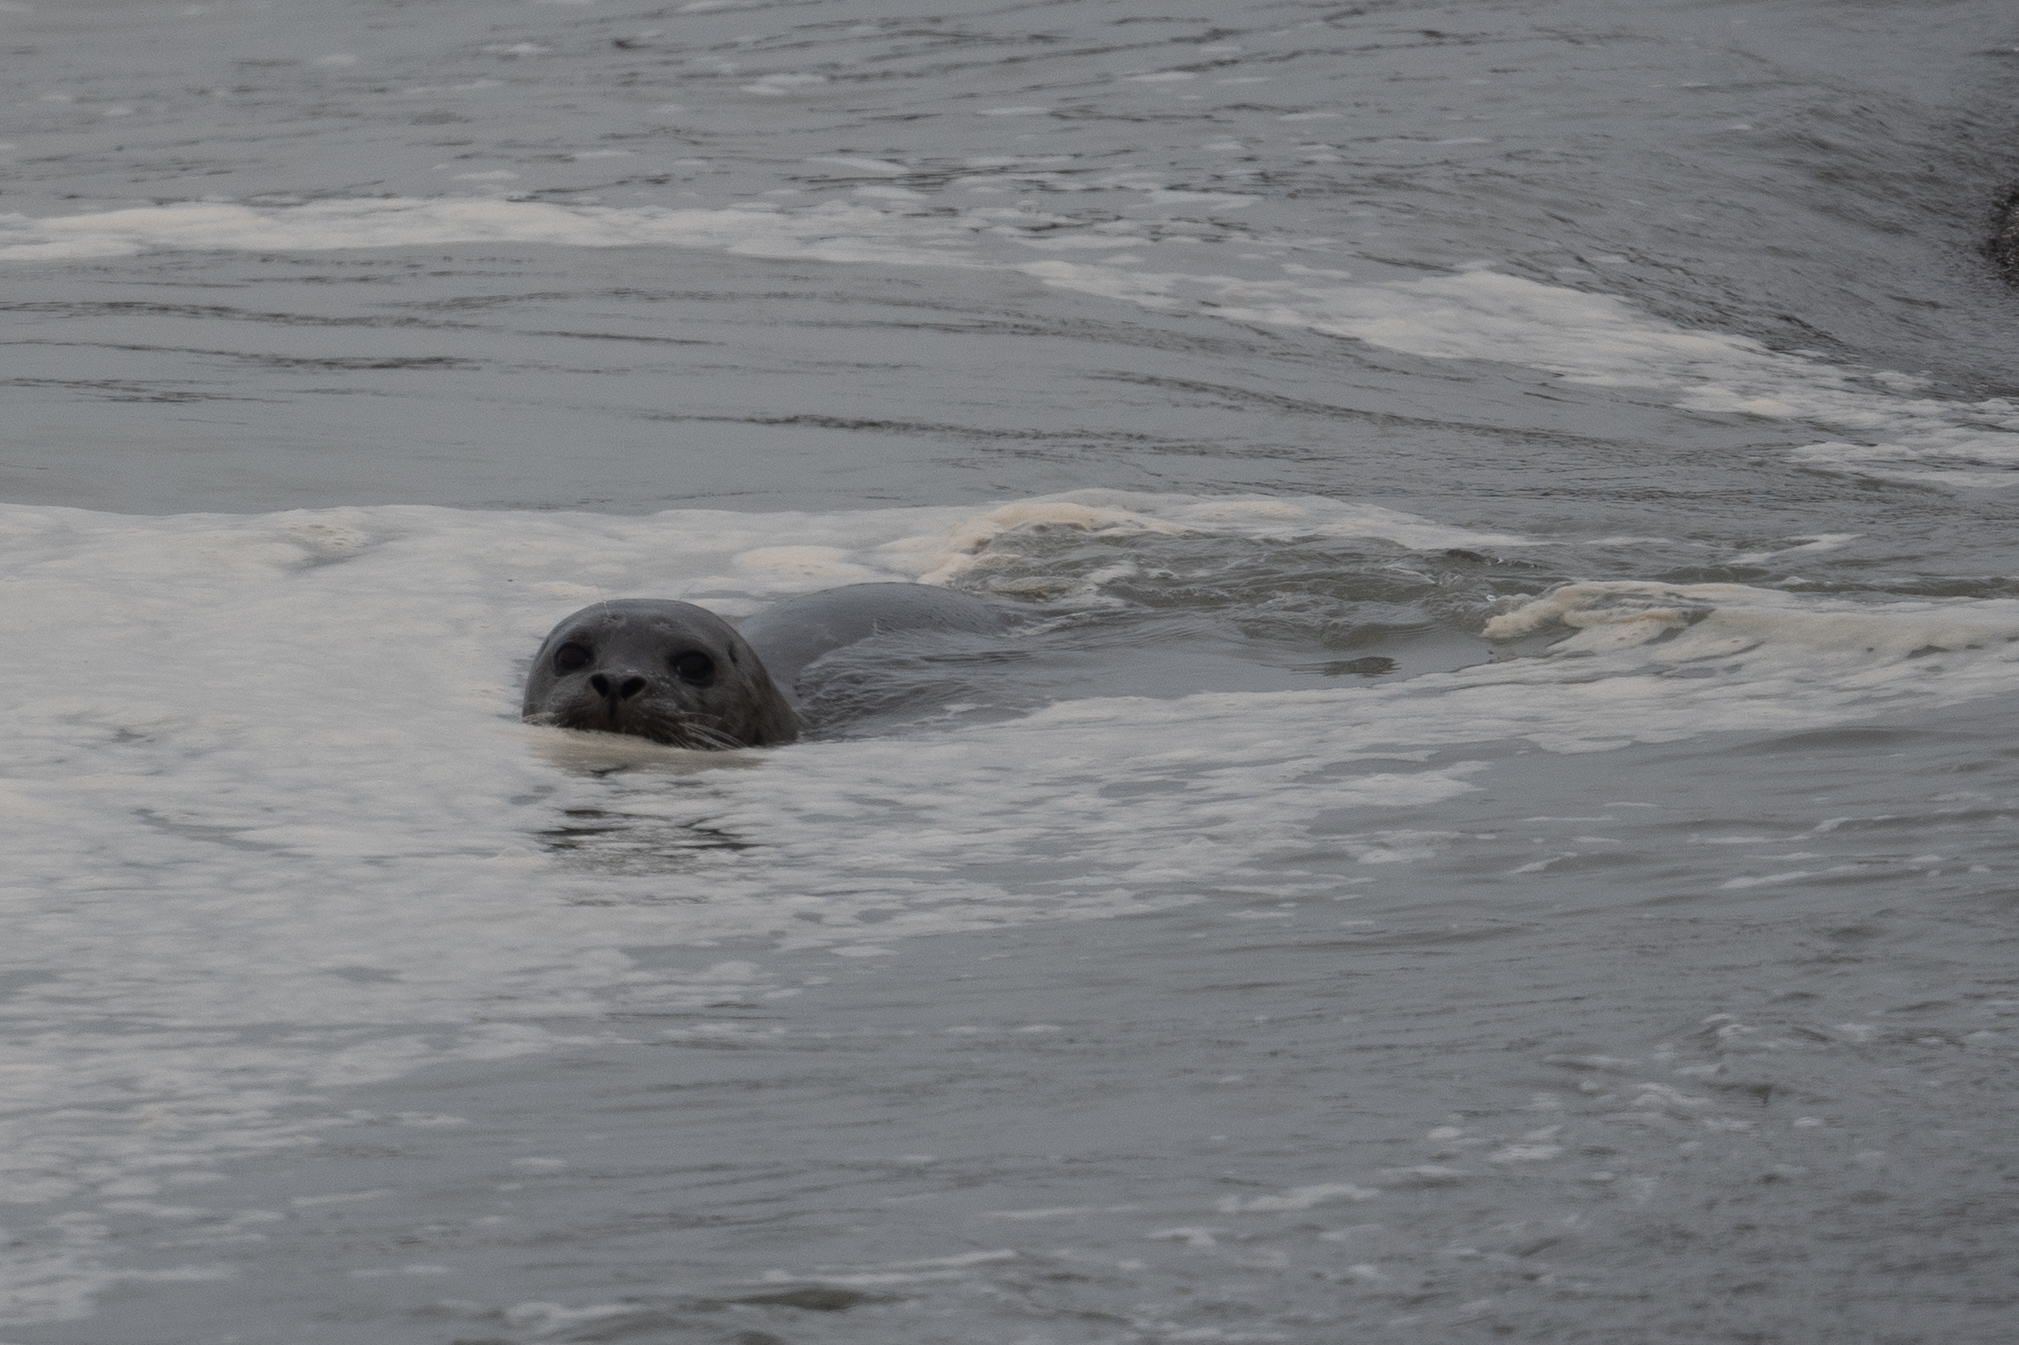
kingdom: Animalia
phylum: Chordata
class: Mammalia
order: Carnivora
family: Phocidae
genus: Phoca
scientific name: Phoca vitulina
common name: Harbor seal
